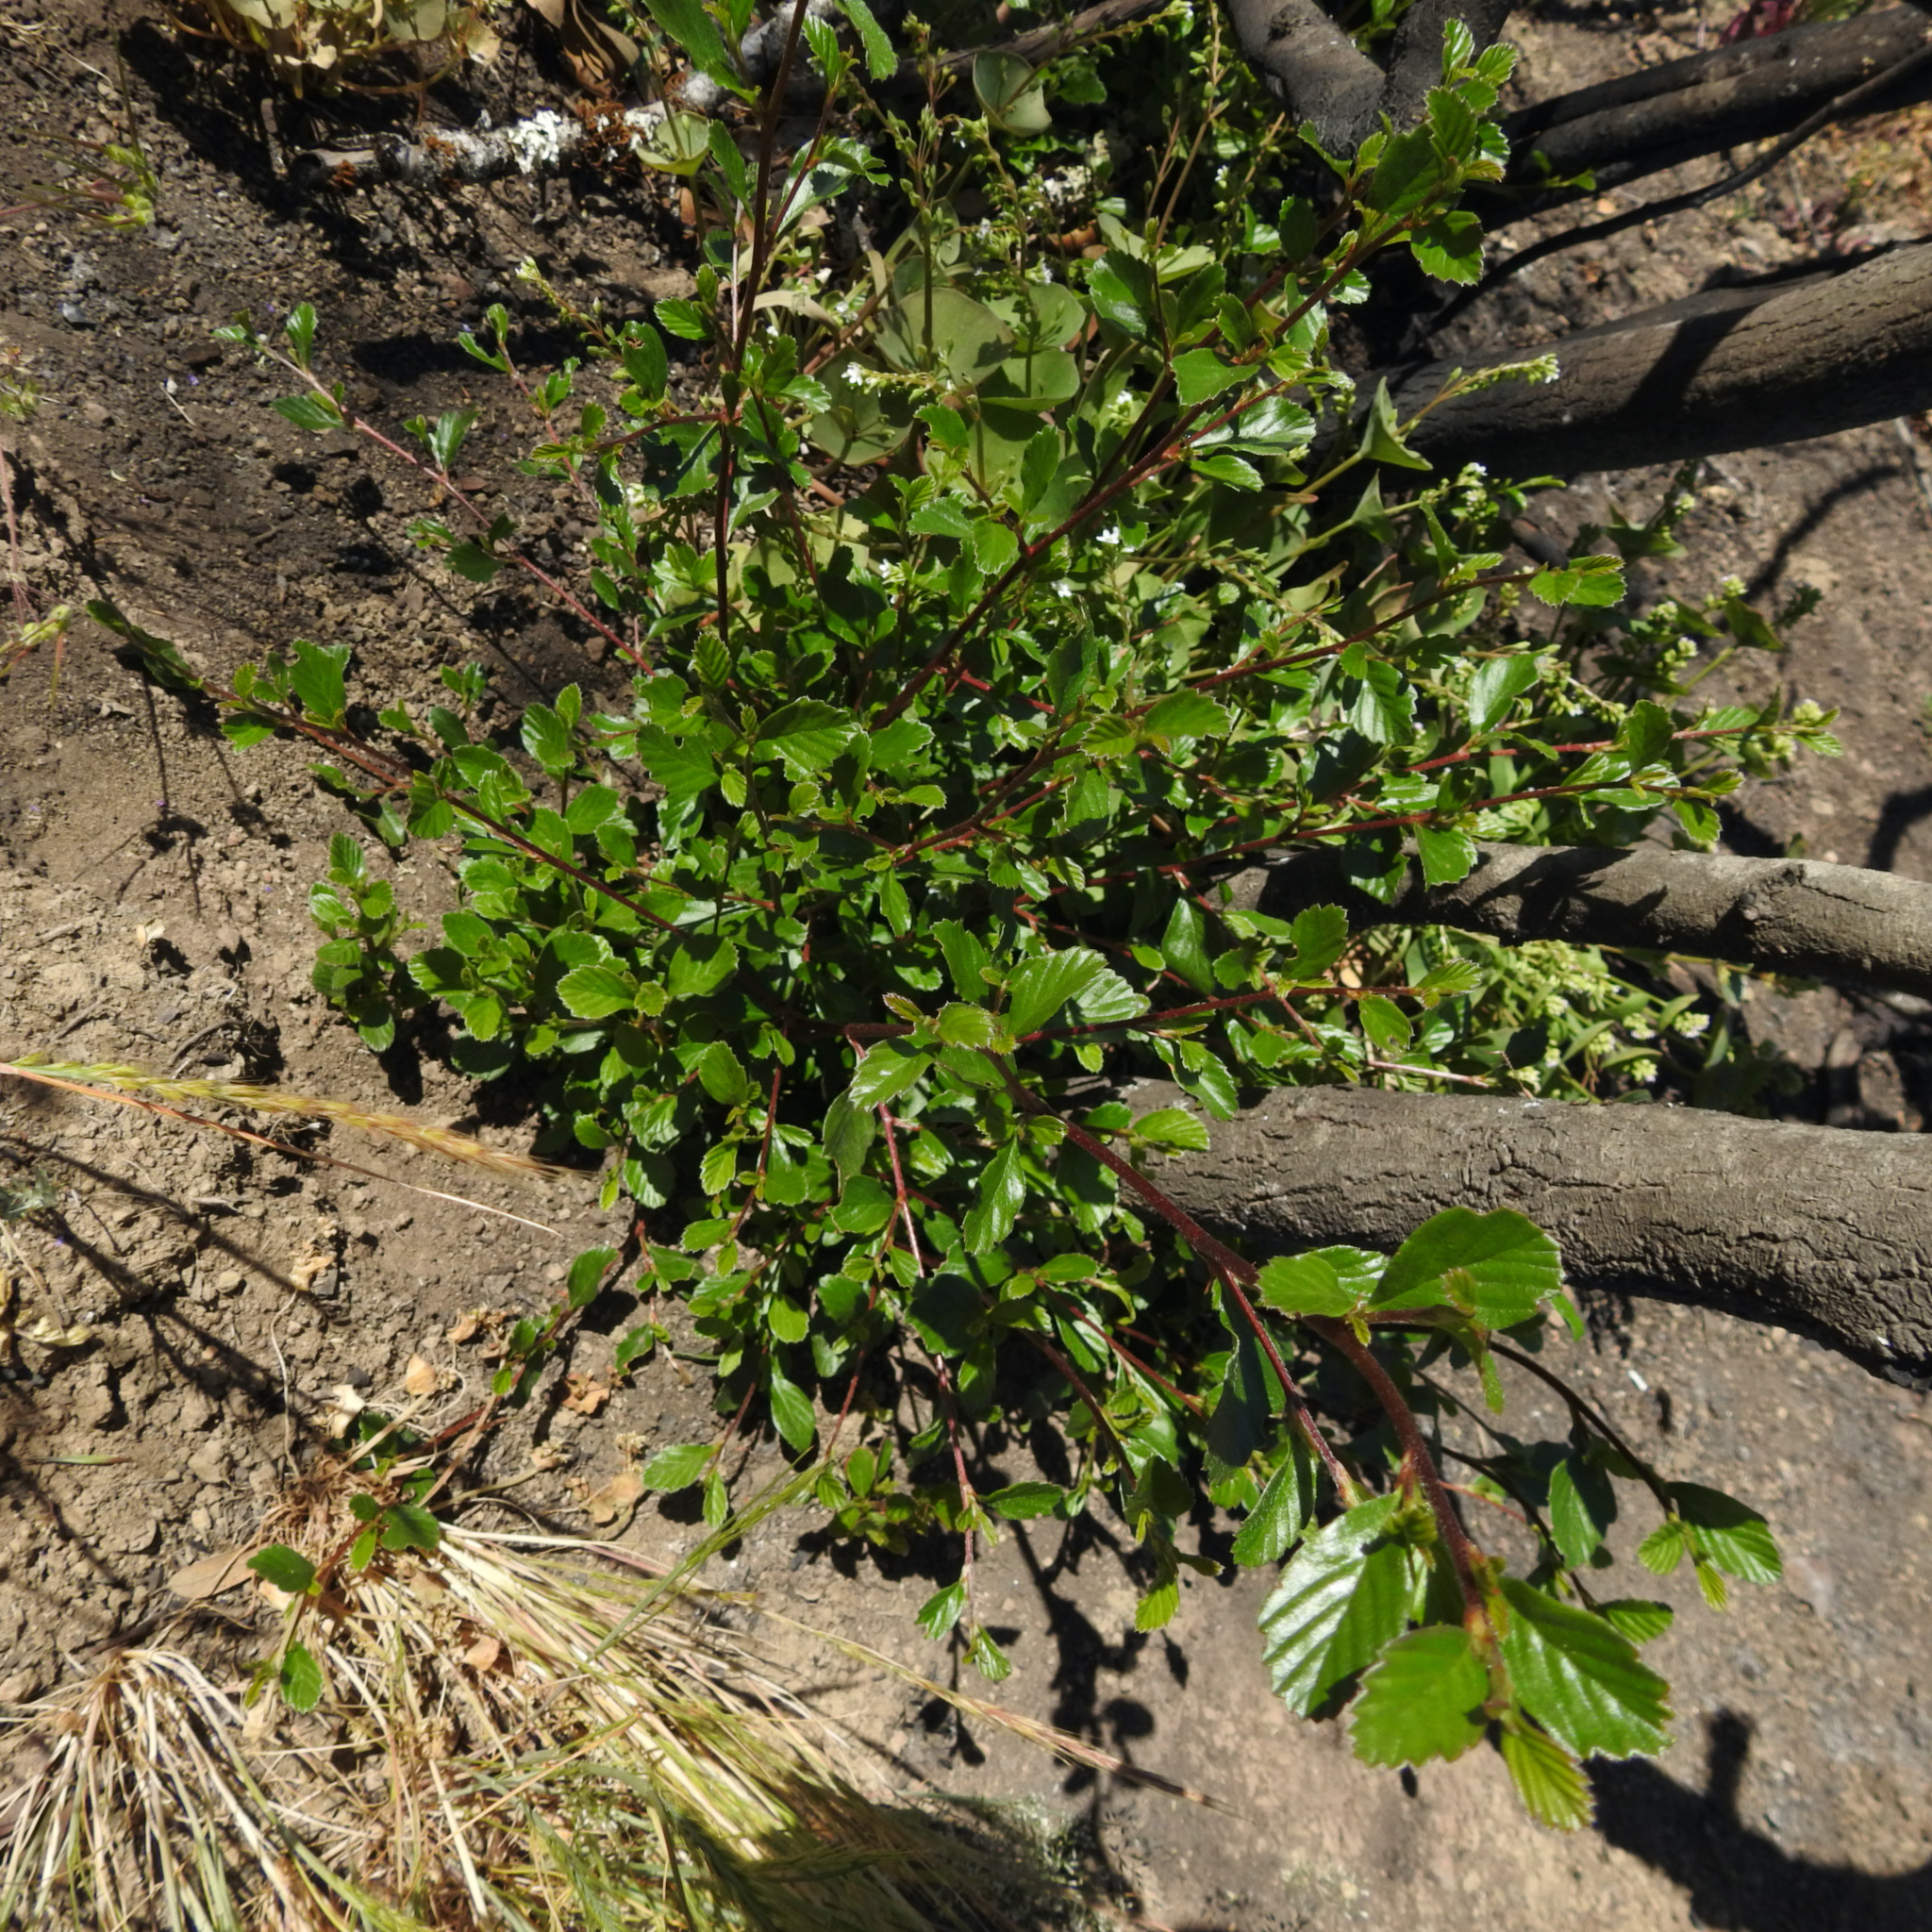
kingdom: Plantae
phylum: Tracheophyta
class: Magnoliopsida
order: Rosales
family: Rosaceae
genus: Cercocarpus
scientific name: Cercocarpus betuloides
